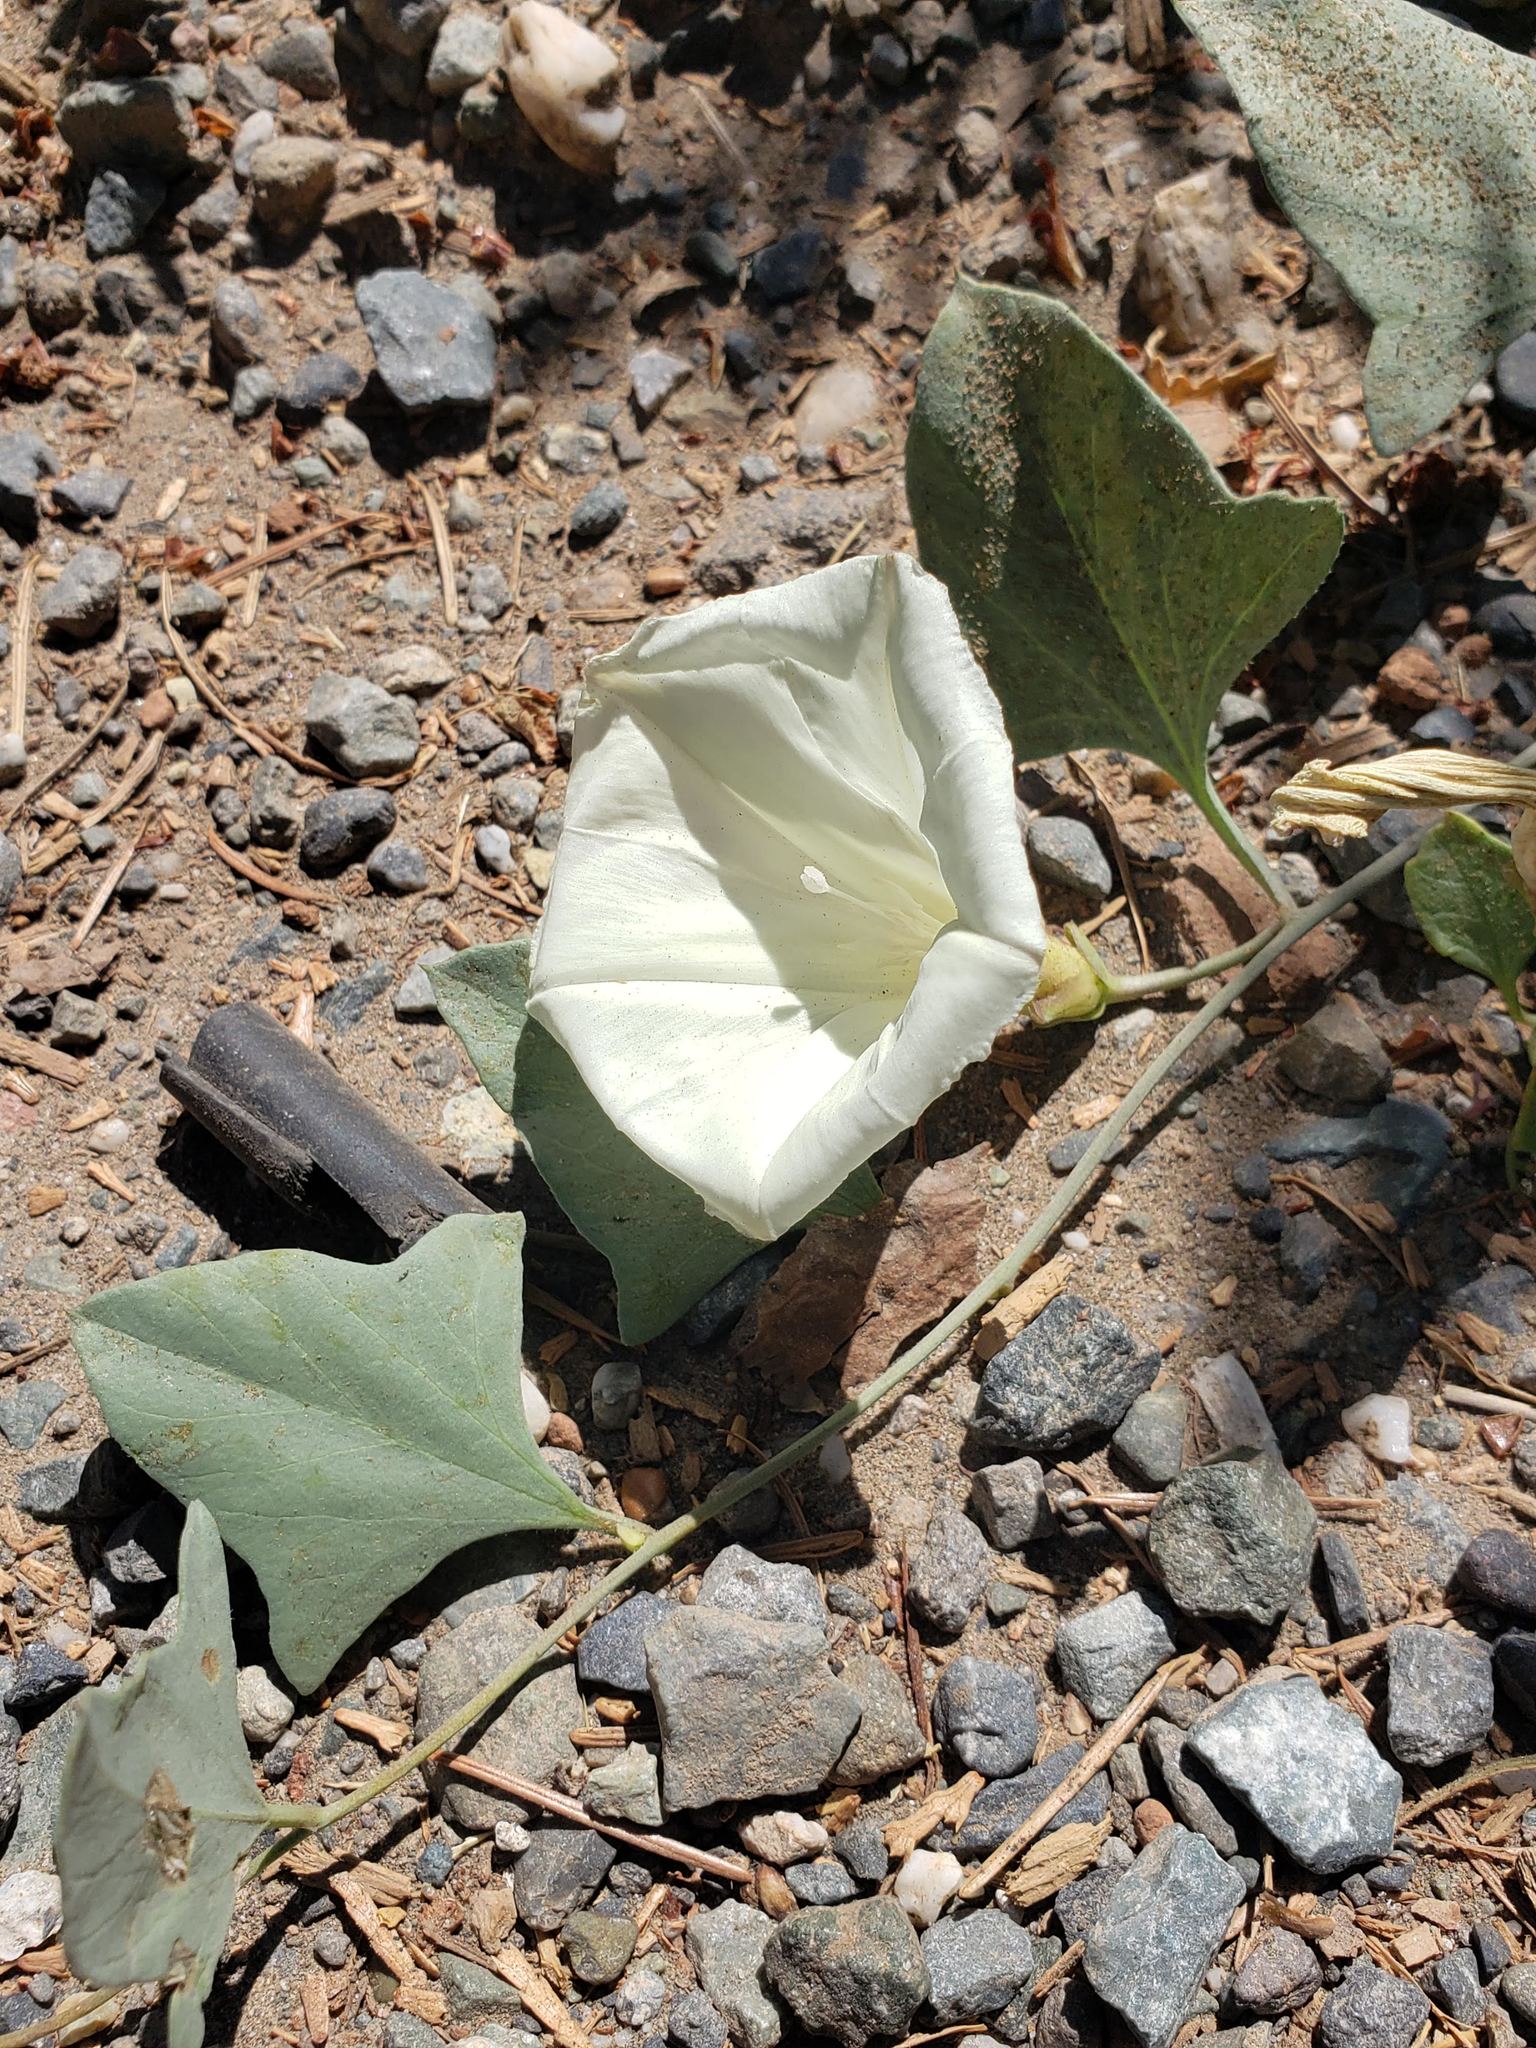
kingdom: Plantae
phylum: Tracheophyta
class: Magnoliopsida
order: Solanales
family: Convolvulaceae
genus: Calystegia
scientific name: Calystegia atriplicifolia
